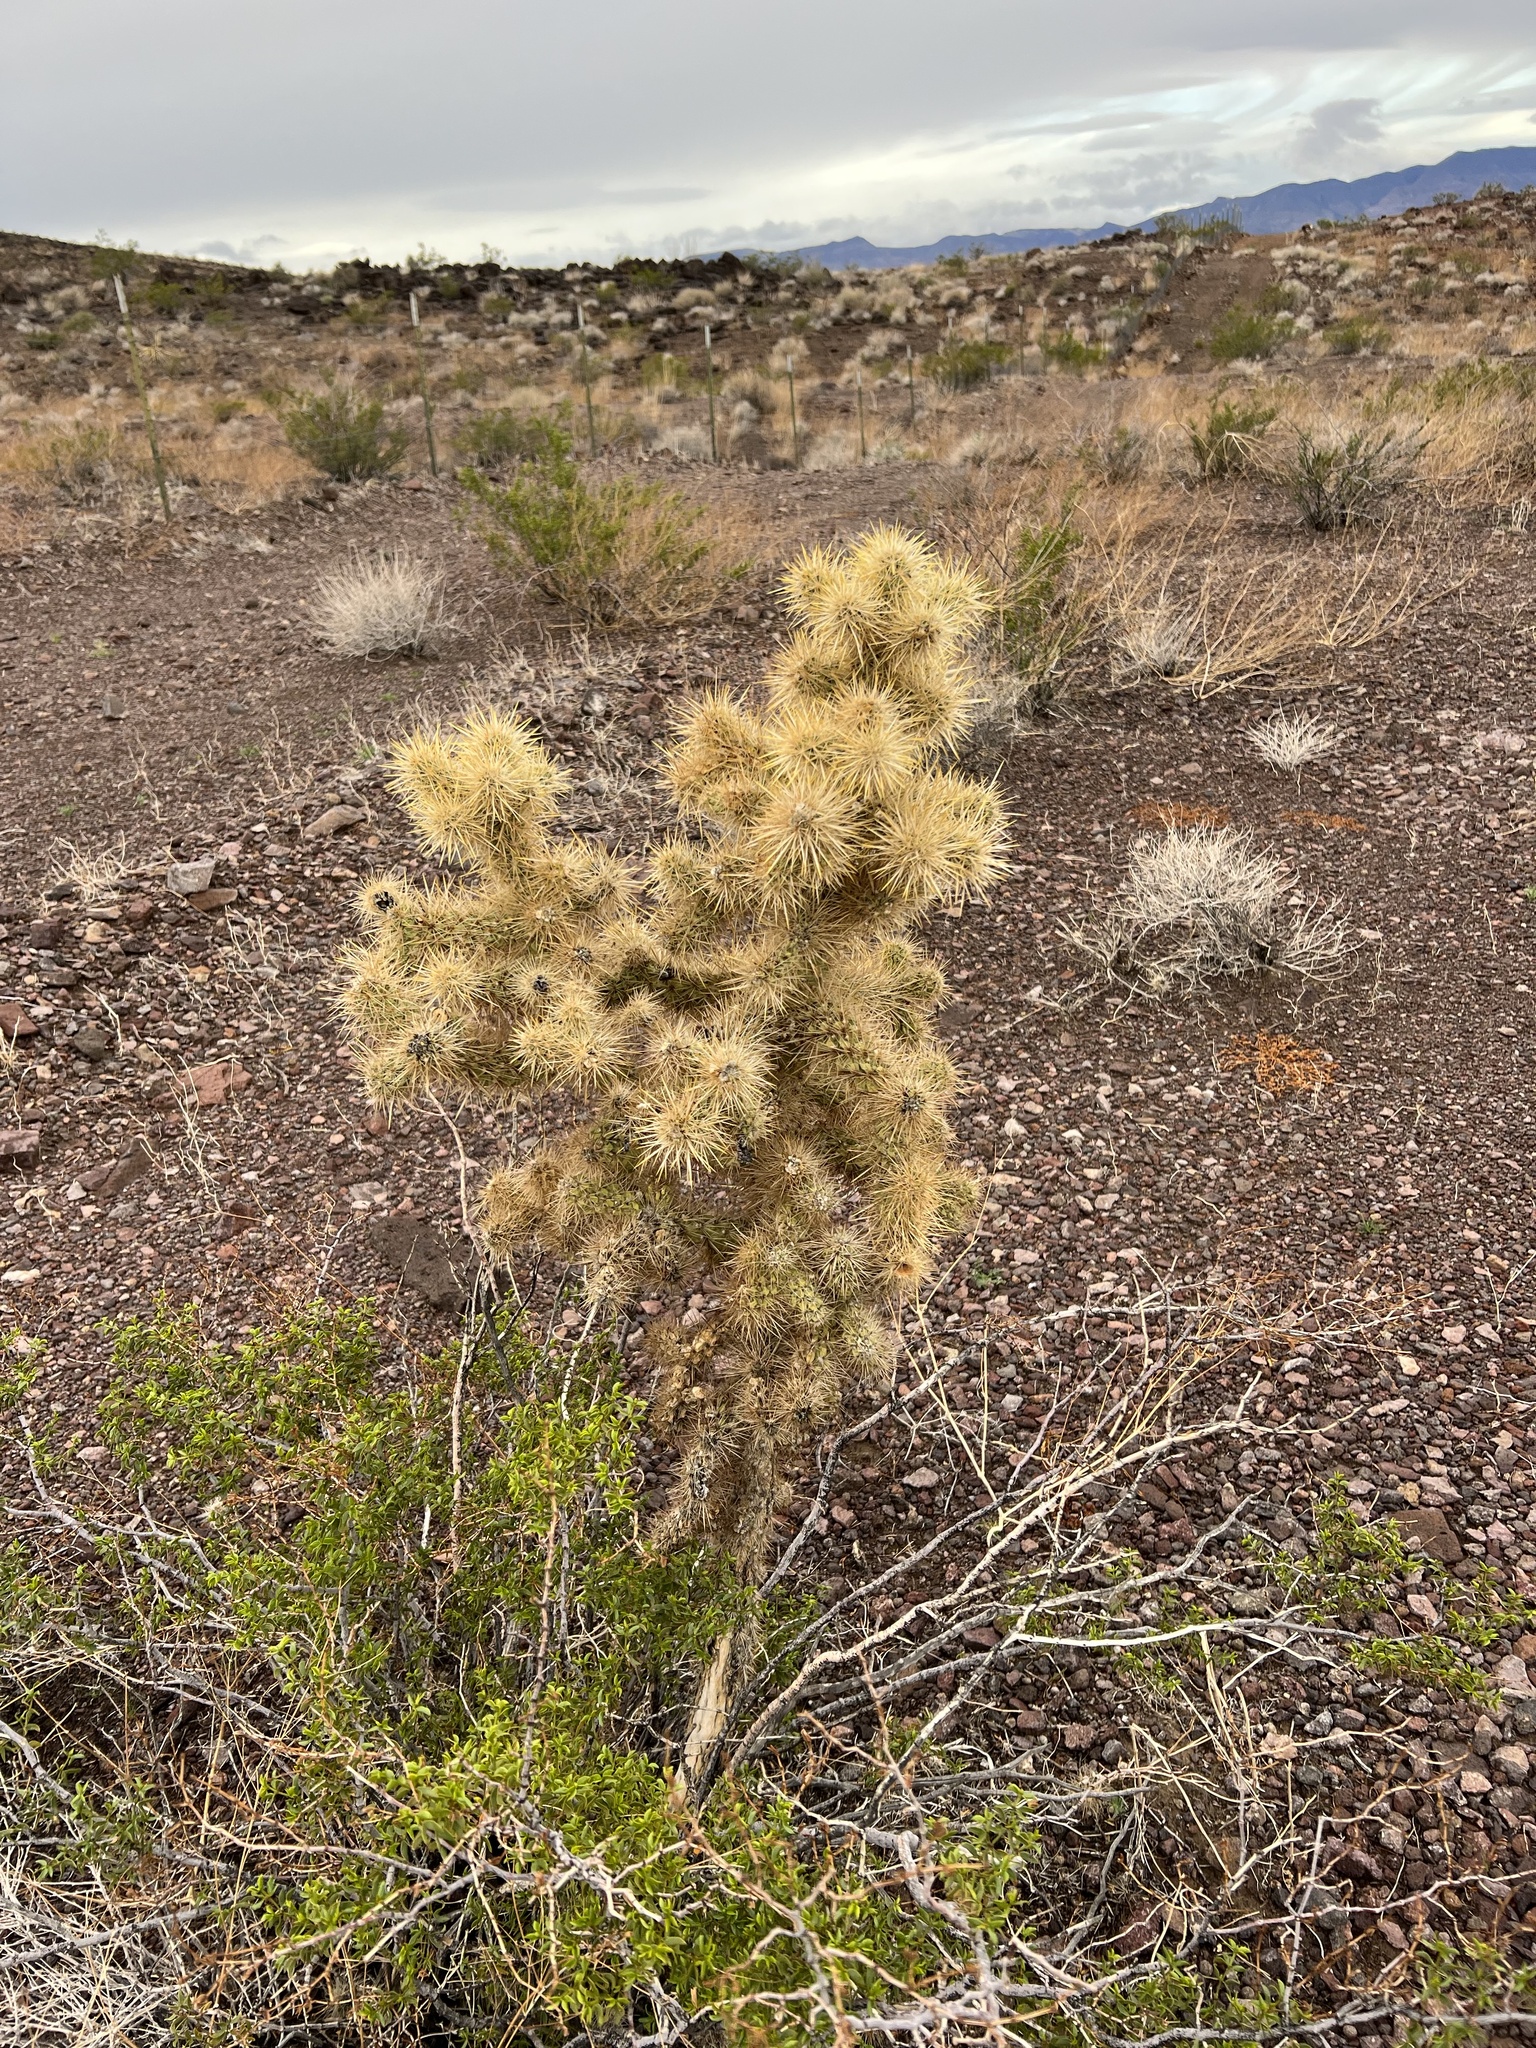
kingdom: Plantae
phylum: Tracheophyta
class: Magnoliopsida
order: Caryophyllales
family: Cactaceae
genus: Cylindropuntia
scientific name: Cylindropuntia echinocarpa
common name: Ground cholla
